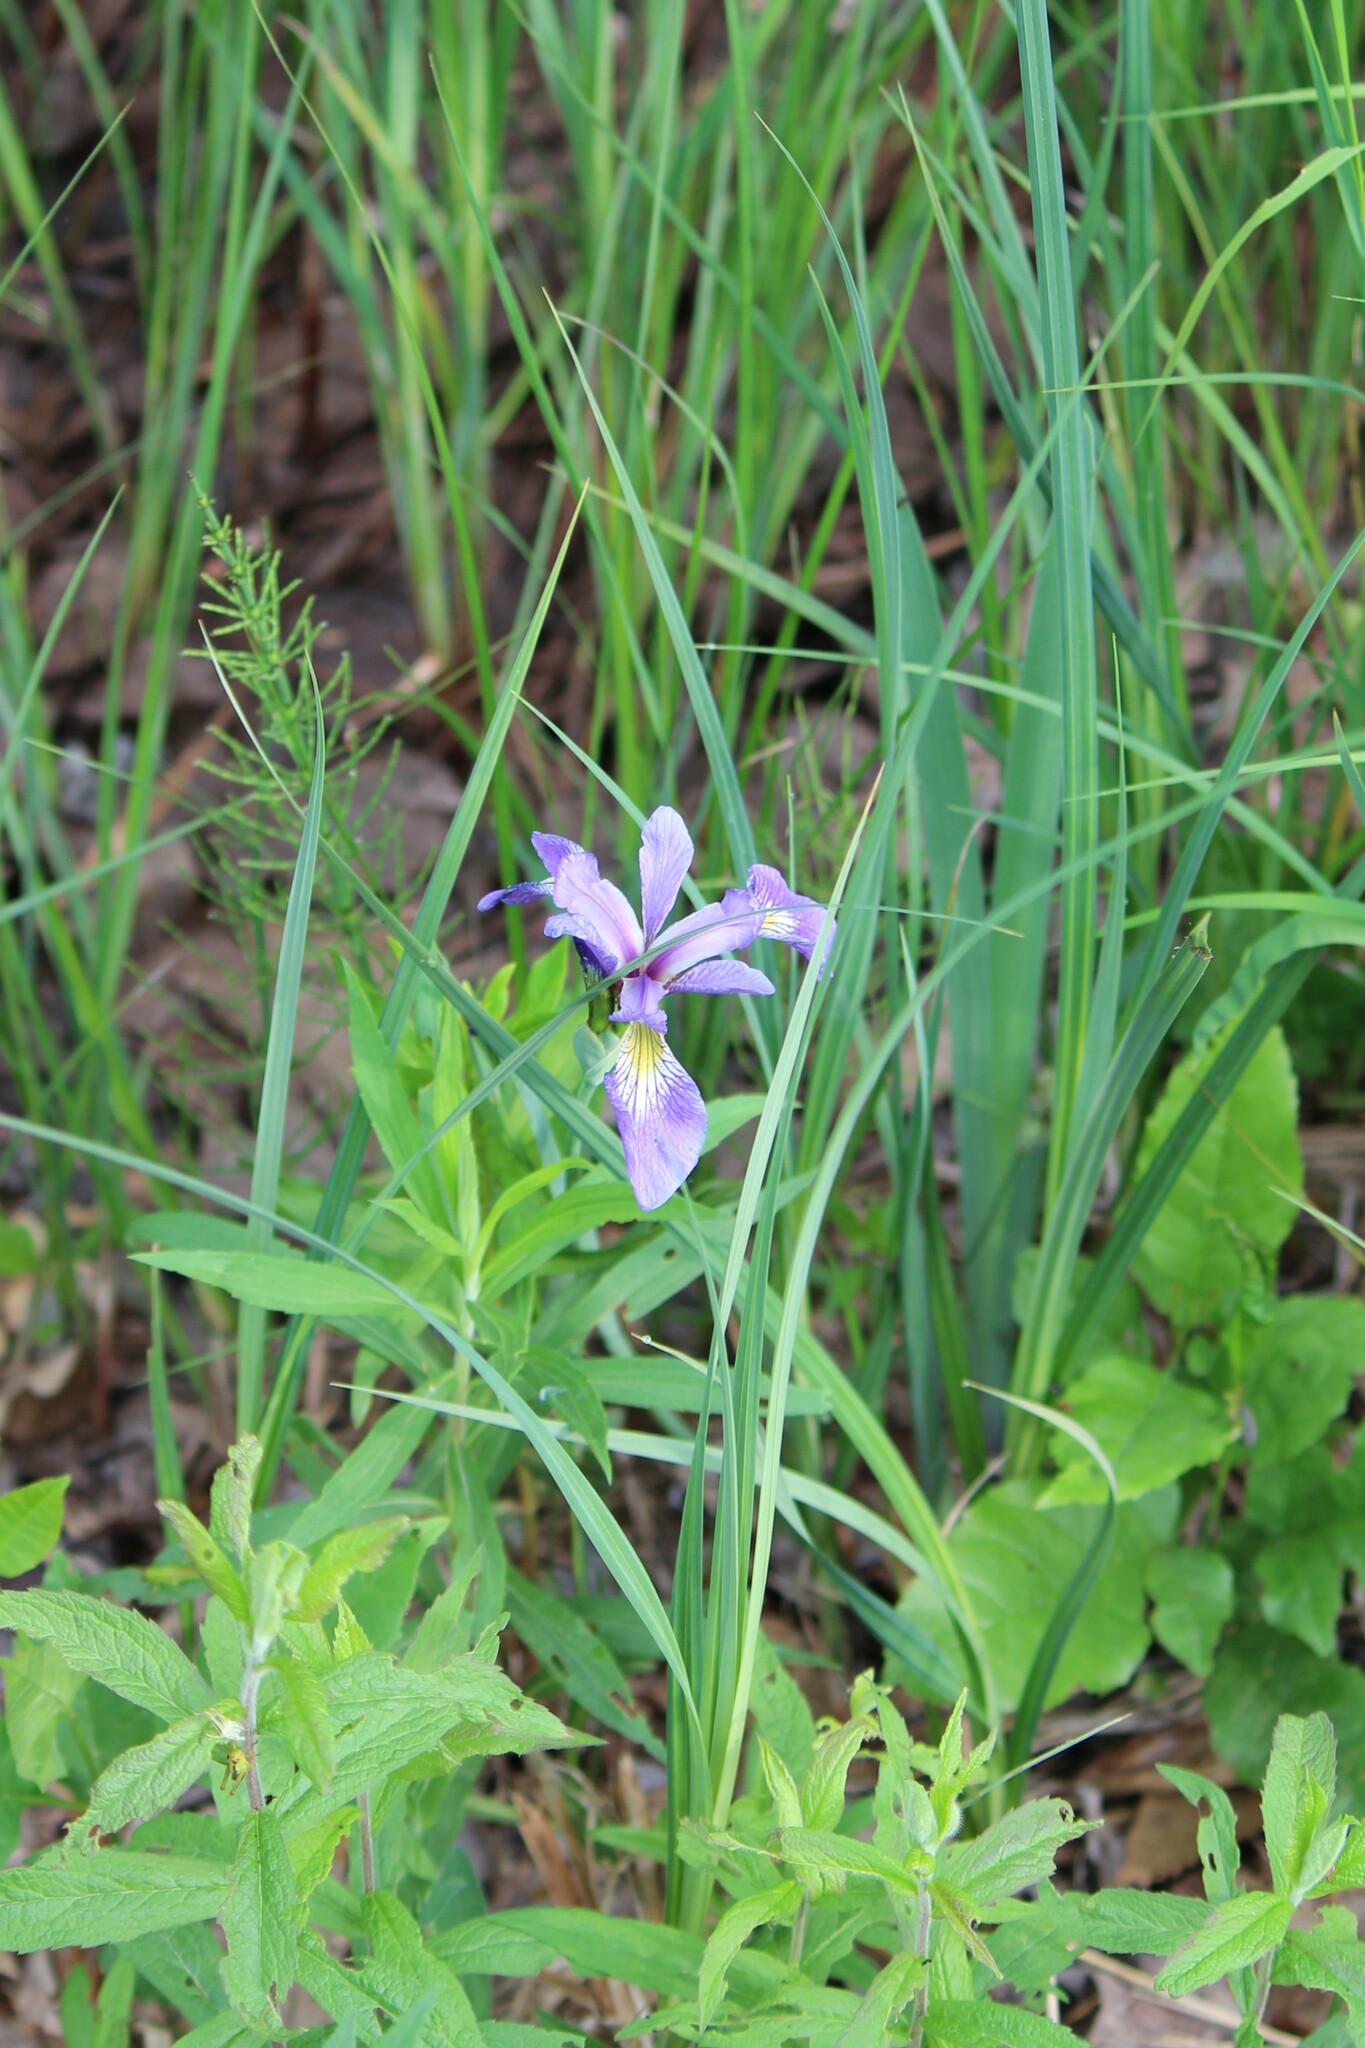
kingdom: Plantae
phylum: Tracheophyta
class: Liliopsida
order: Asparagales
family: Iridaceae
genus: Iris
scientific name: Iris versicolor
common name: Purple iris
